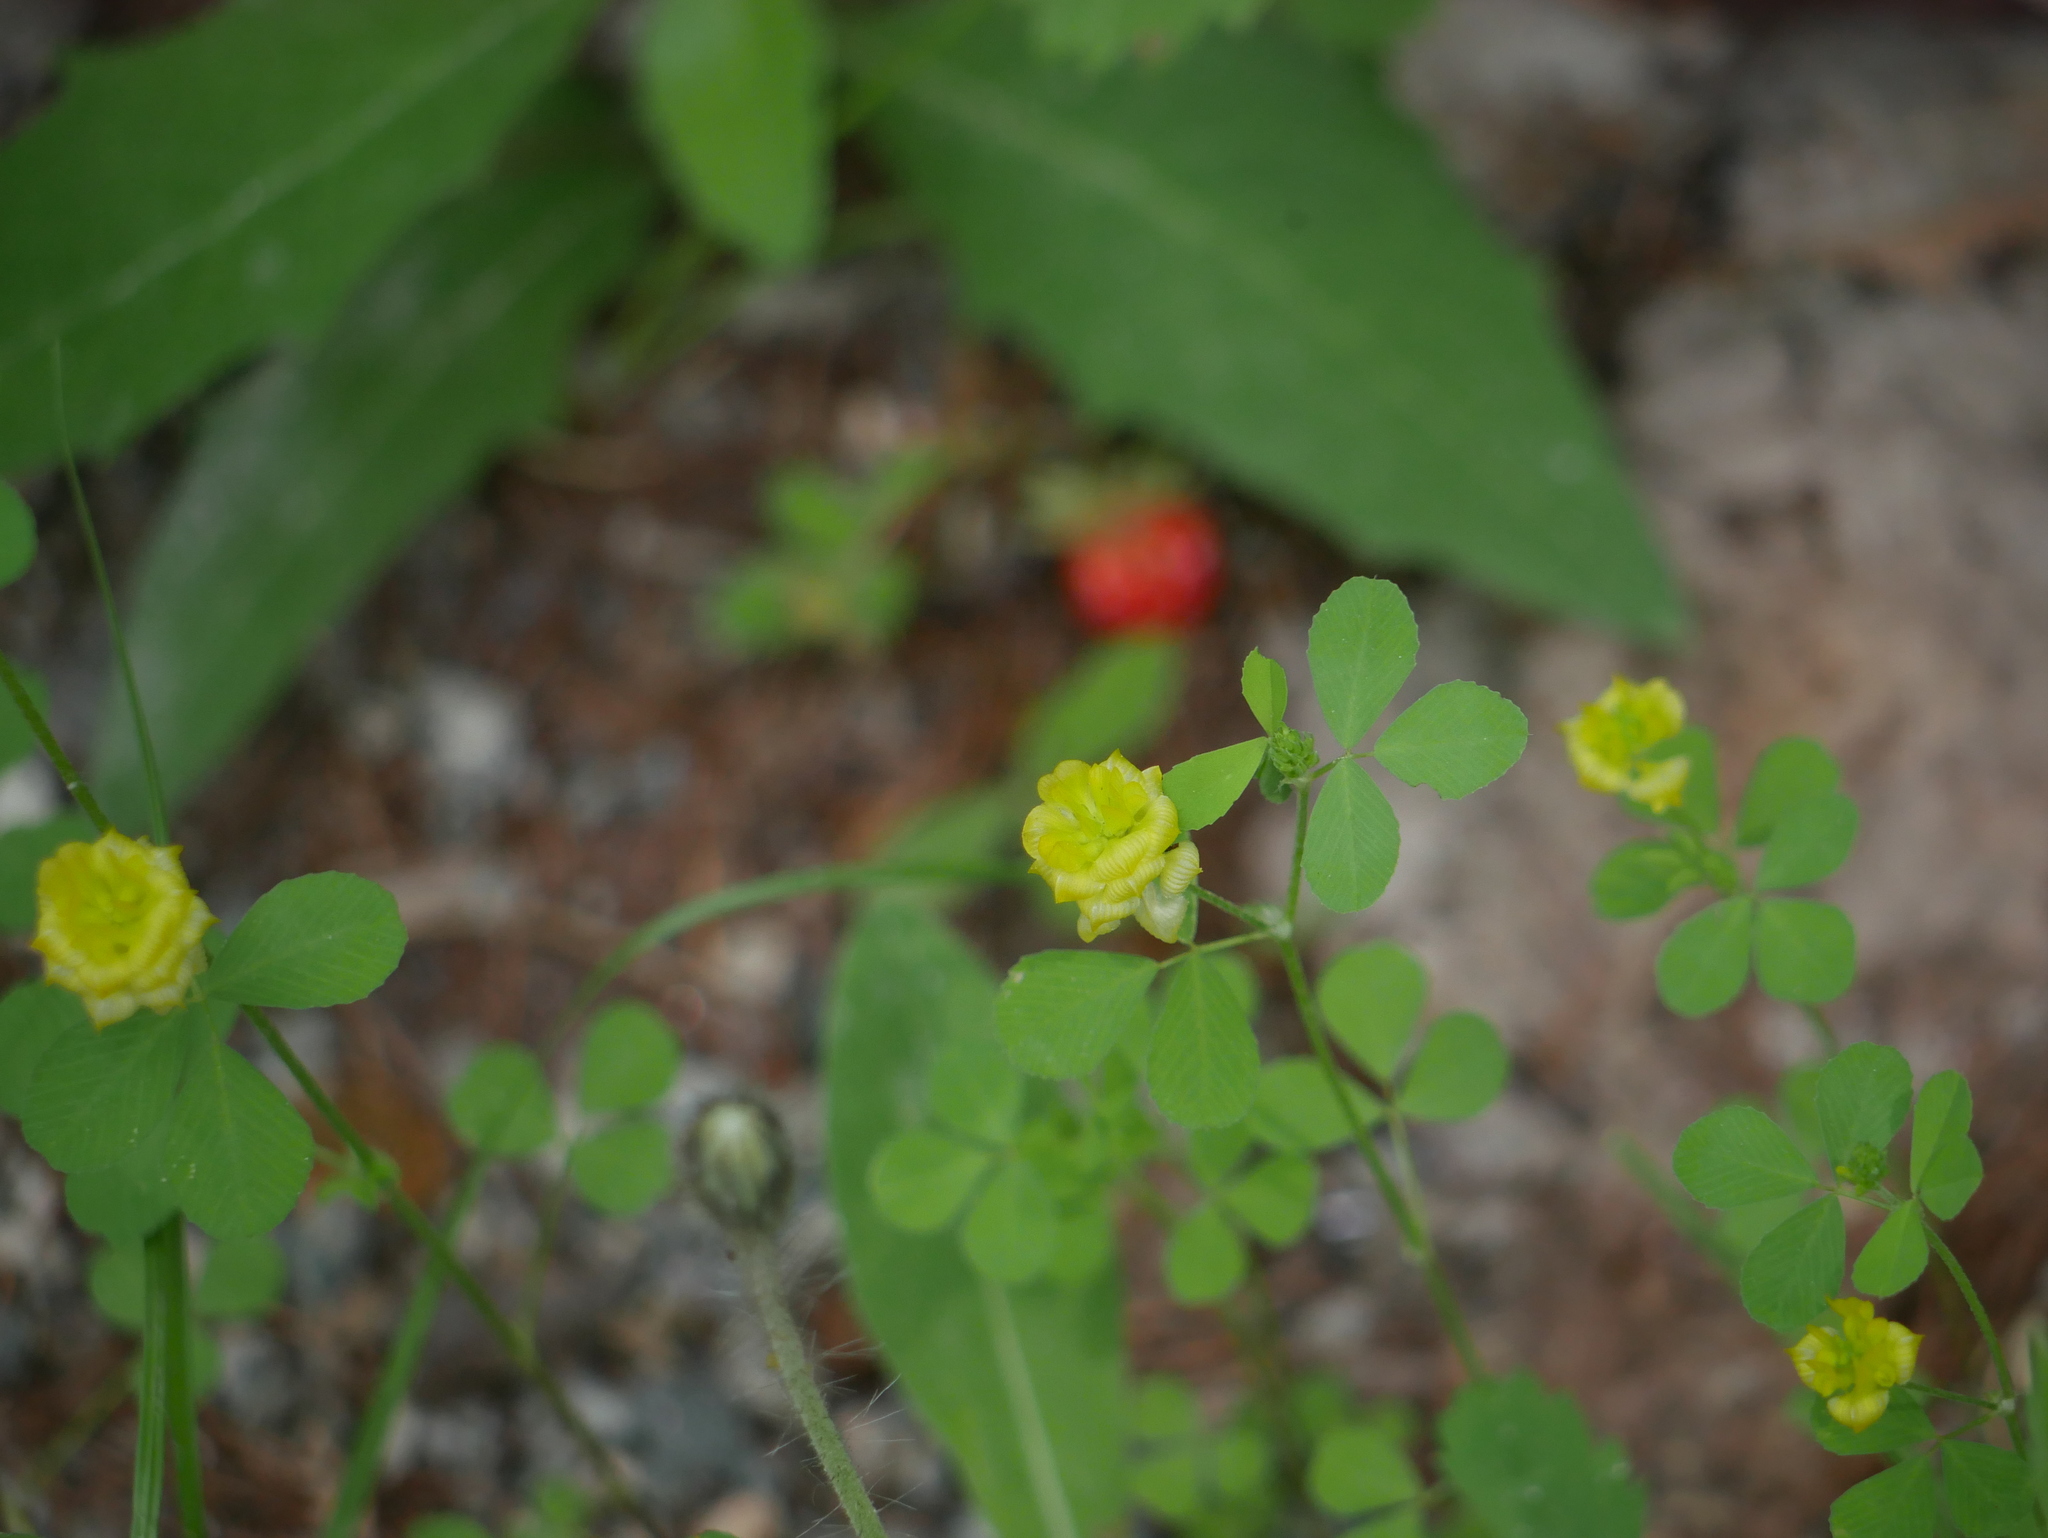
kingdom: Plantae
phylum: Tracheophyta
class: Magnoliopsida
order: Fabales
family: Fabaceae
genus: Trifolium
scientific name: Trifolium campestre
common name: Field clover
